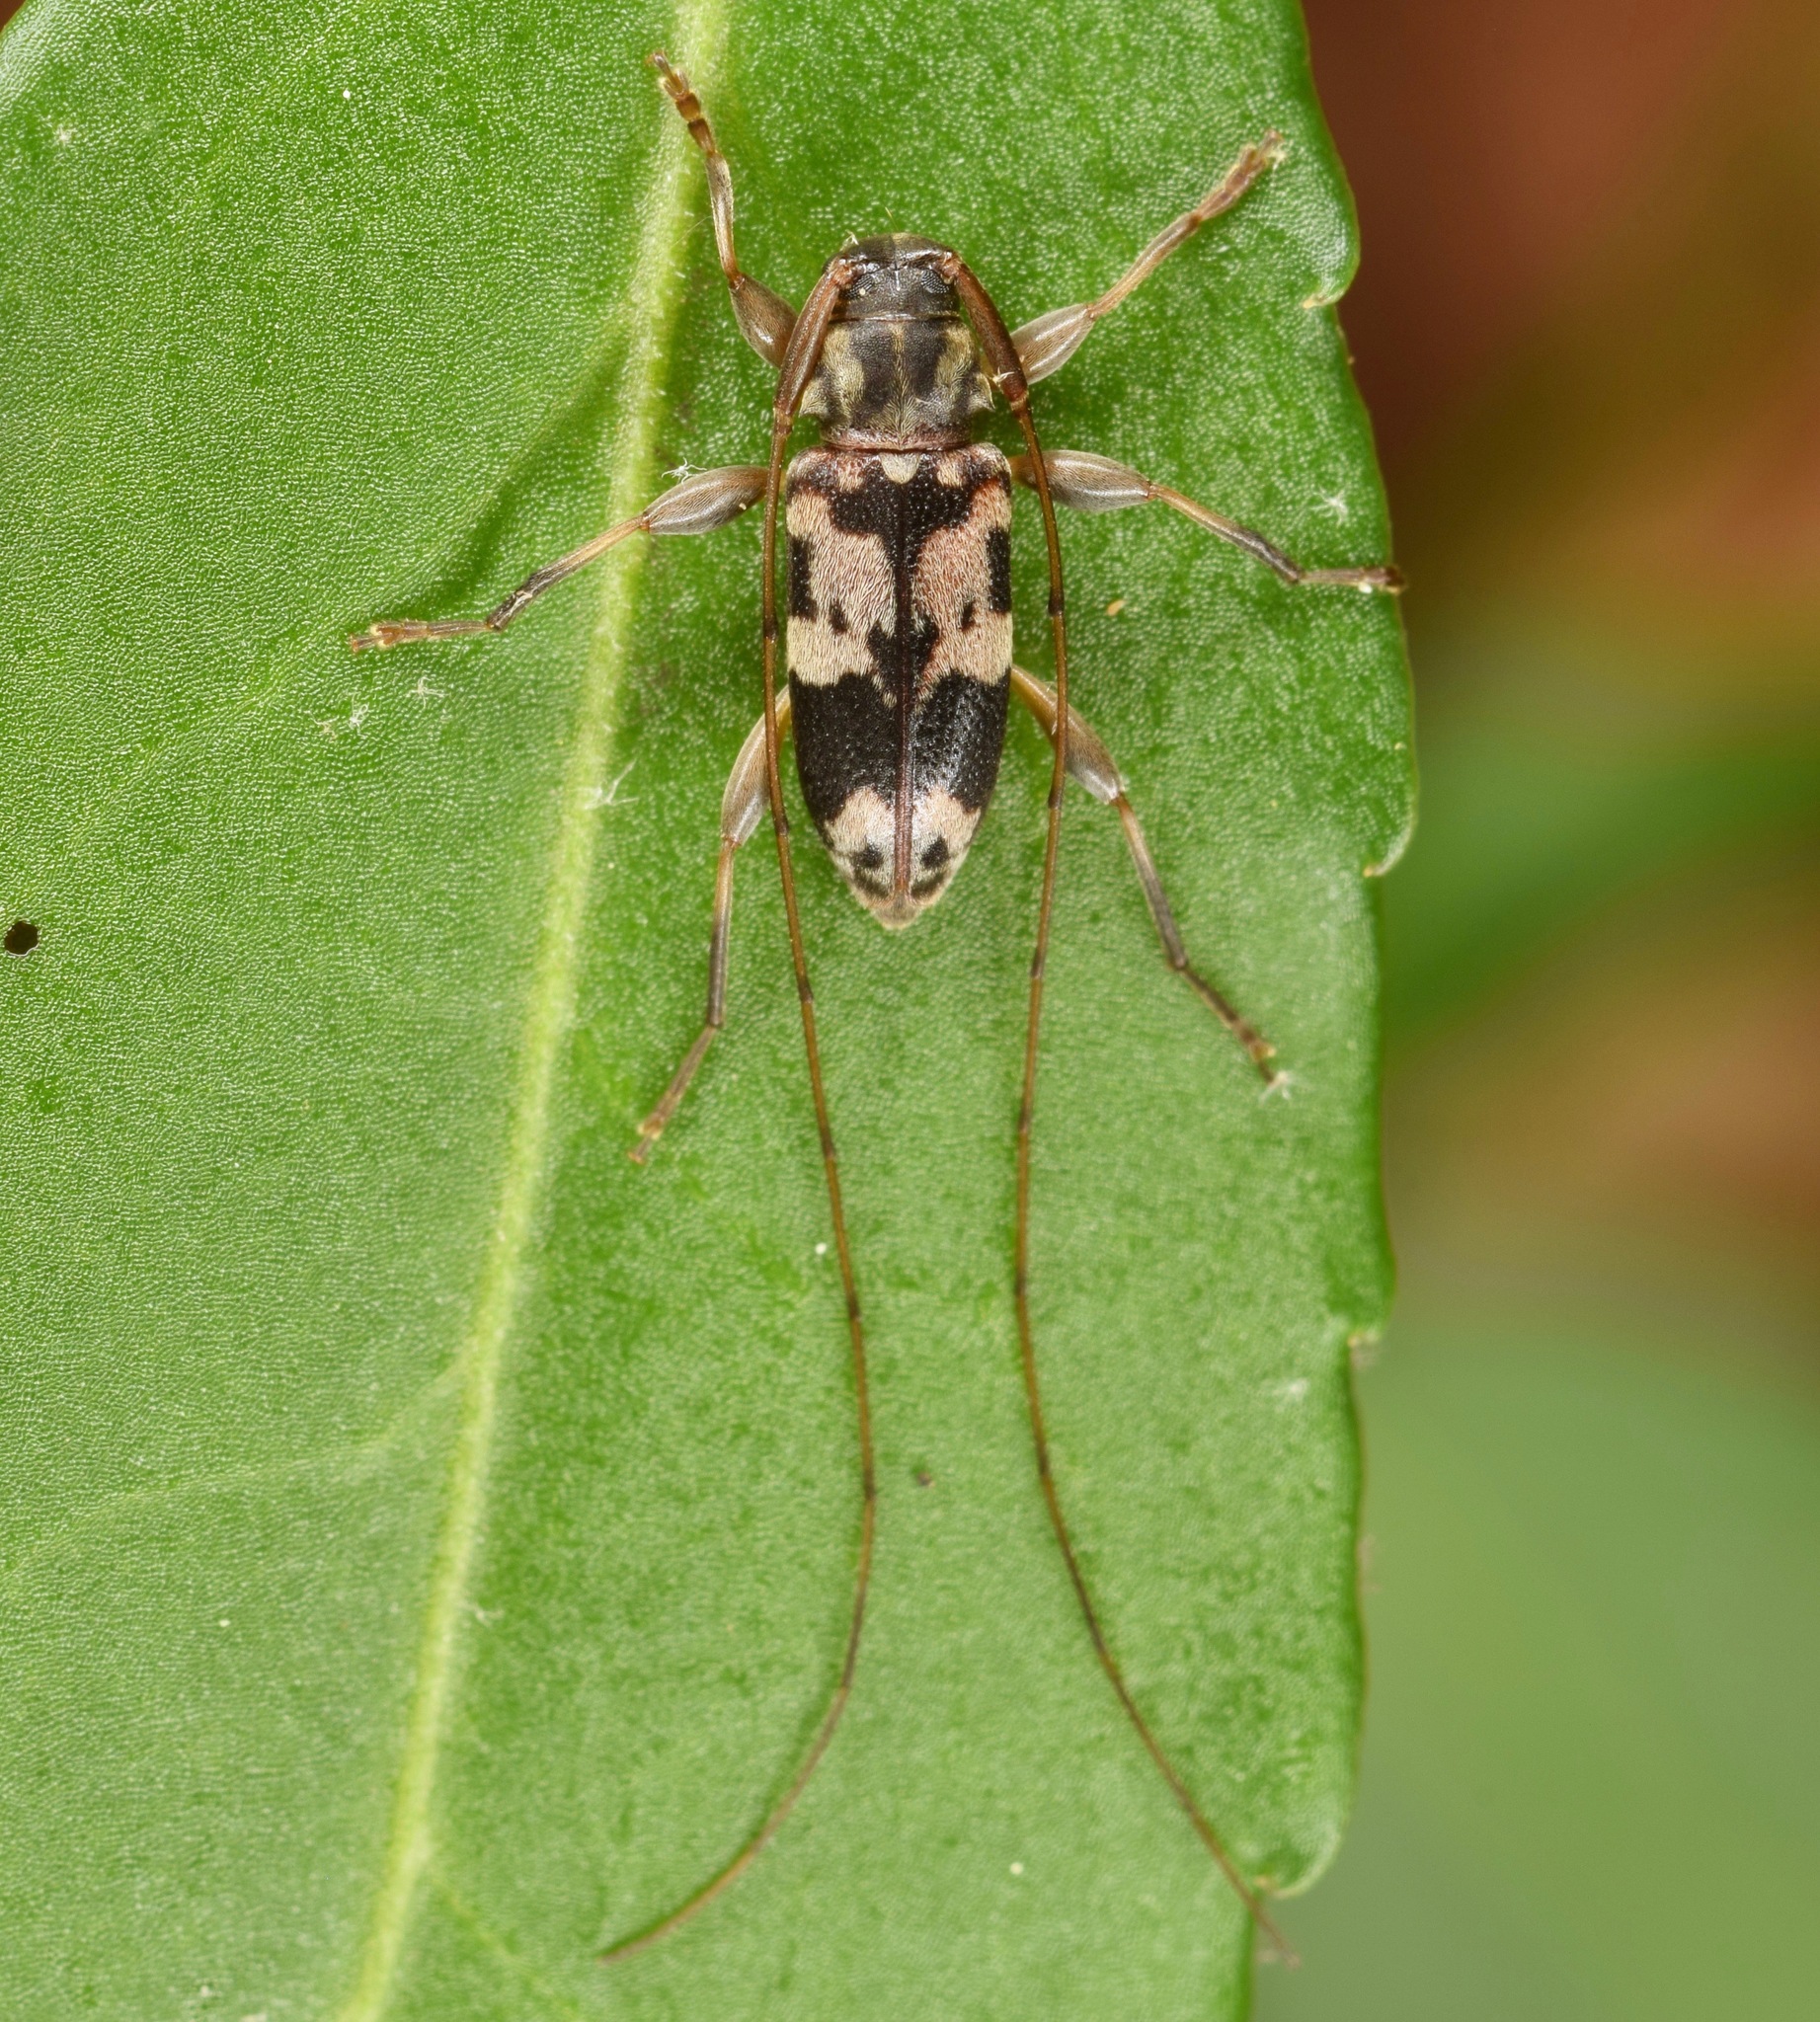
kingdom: Animalia
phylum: Arthropoda
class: Insecta
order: Coleoptera
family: Cerambycidae
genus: Urgleptes
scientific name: Urgleptes querci
